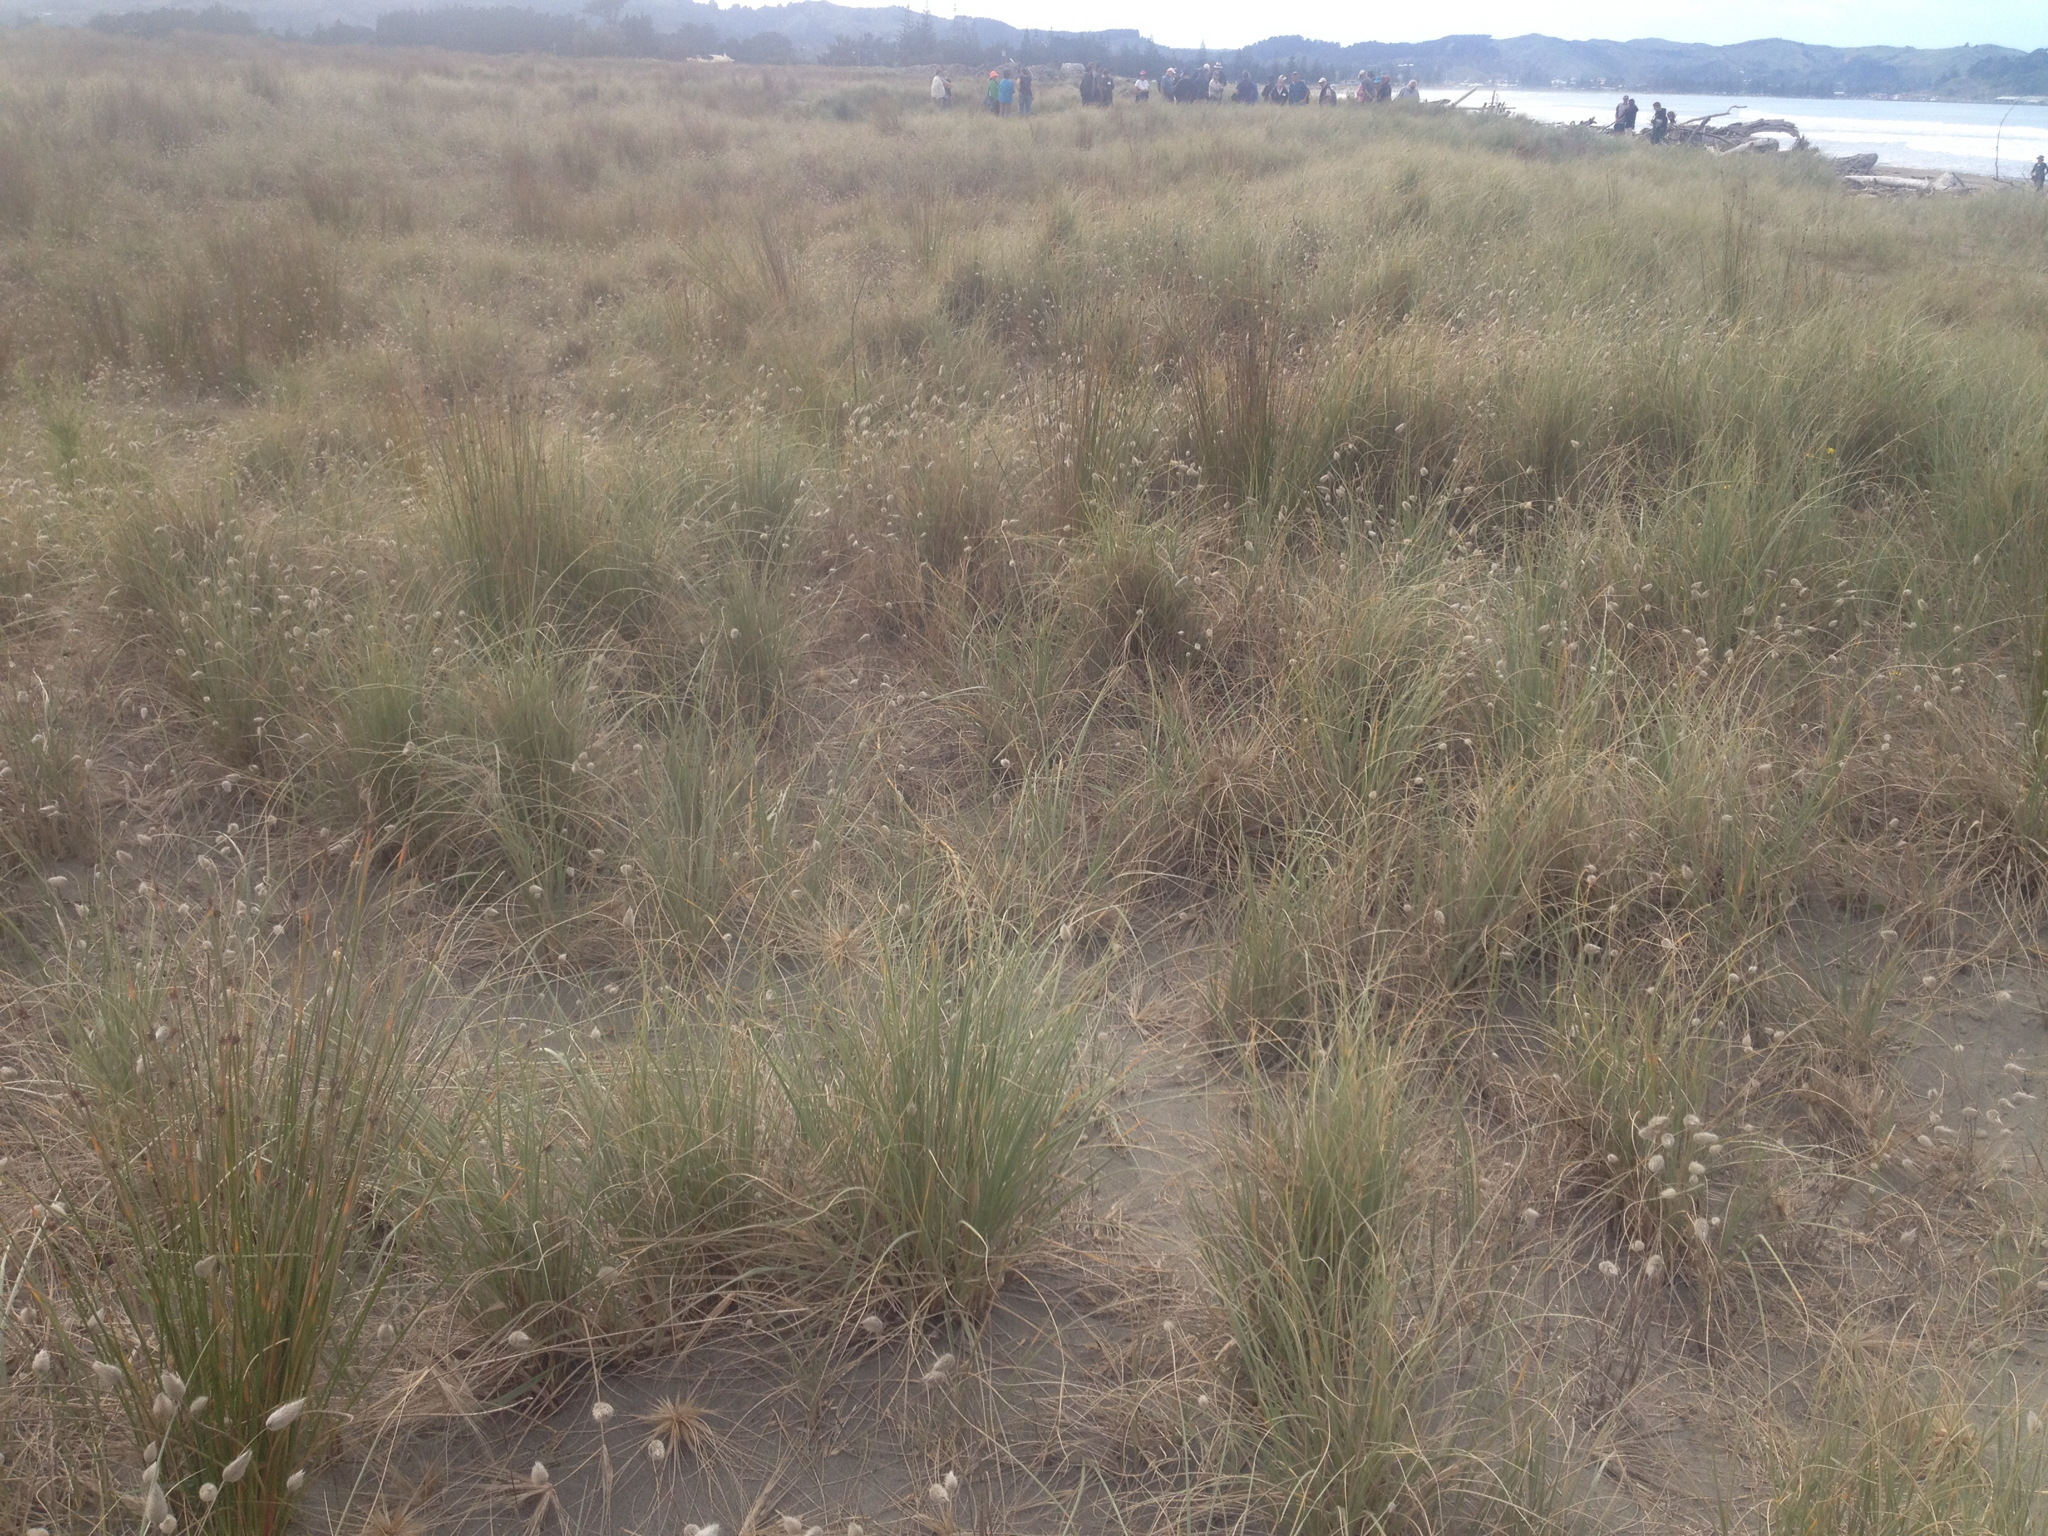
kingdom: Plantae
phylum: Tracheophyta
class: Liliopsida
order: Poales
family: Poaceae
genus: Spinifex
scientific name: Spinifex sericeus
